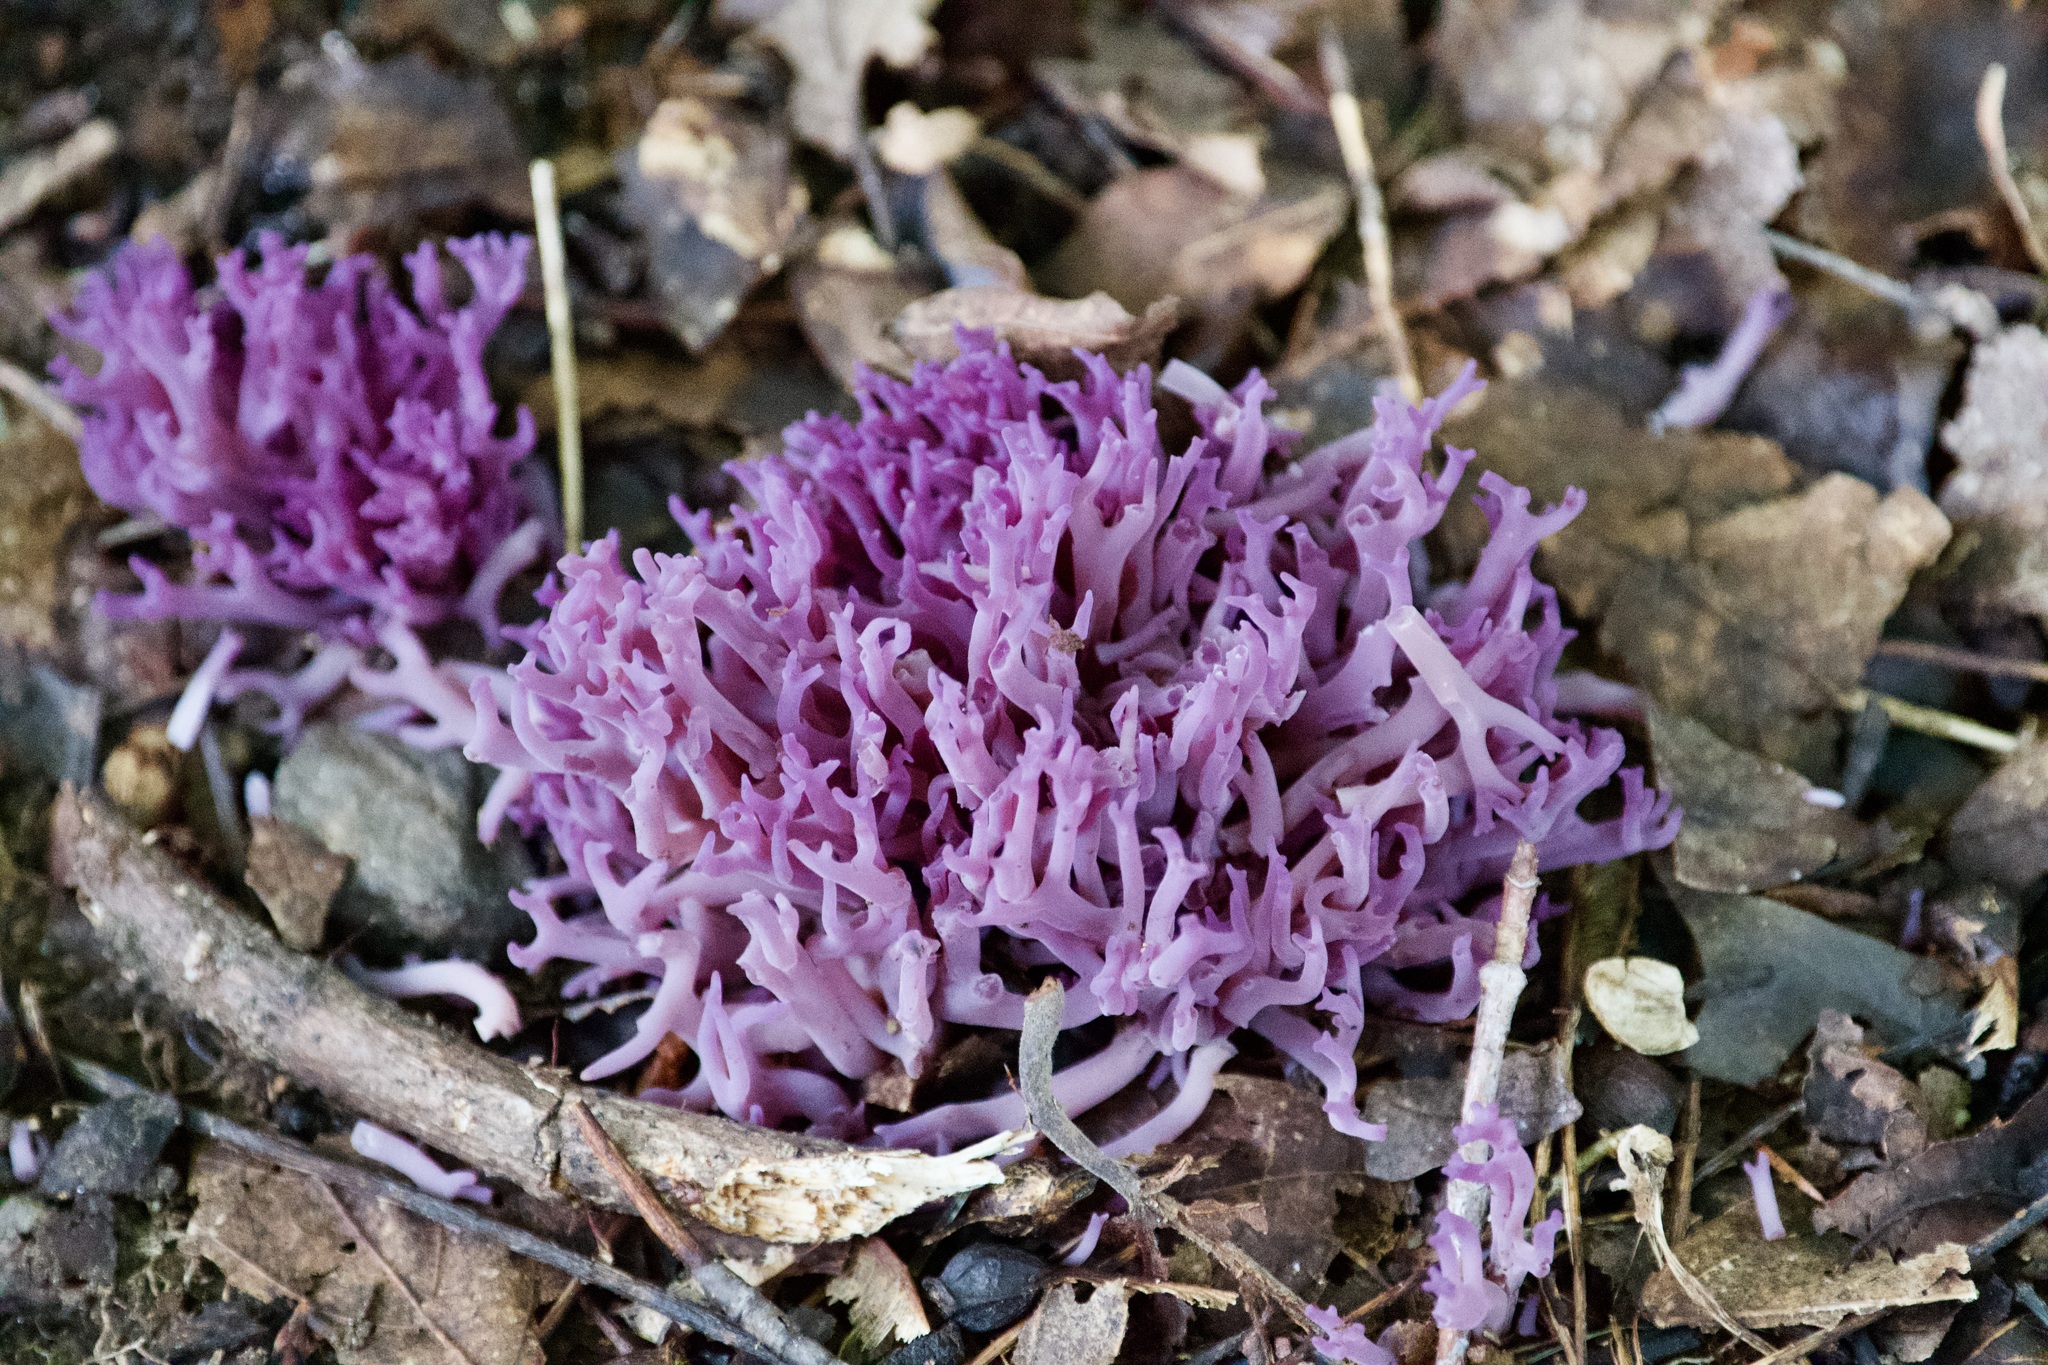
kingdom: Fungi
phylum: Basidiomycota
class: Agaricomycetes
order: Agaricales
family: Clavariaceae
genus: Clavaria
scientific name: Clavaria zollingeri
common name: Violet coral
